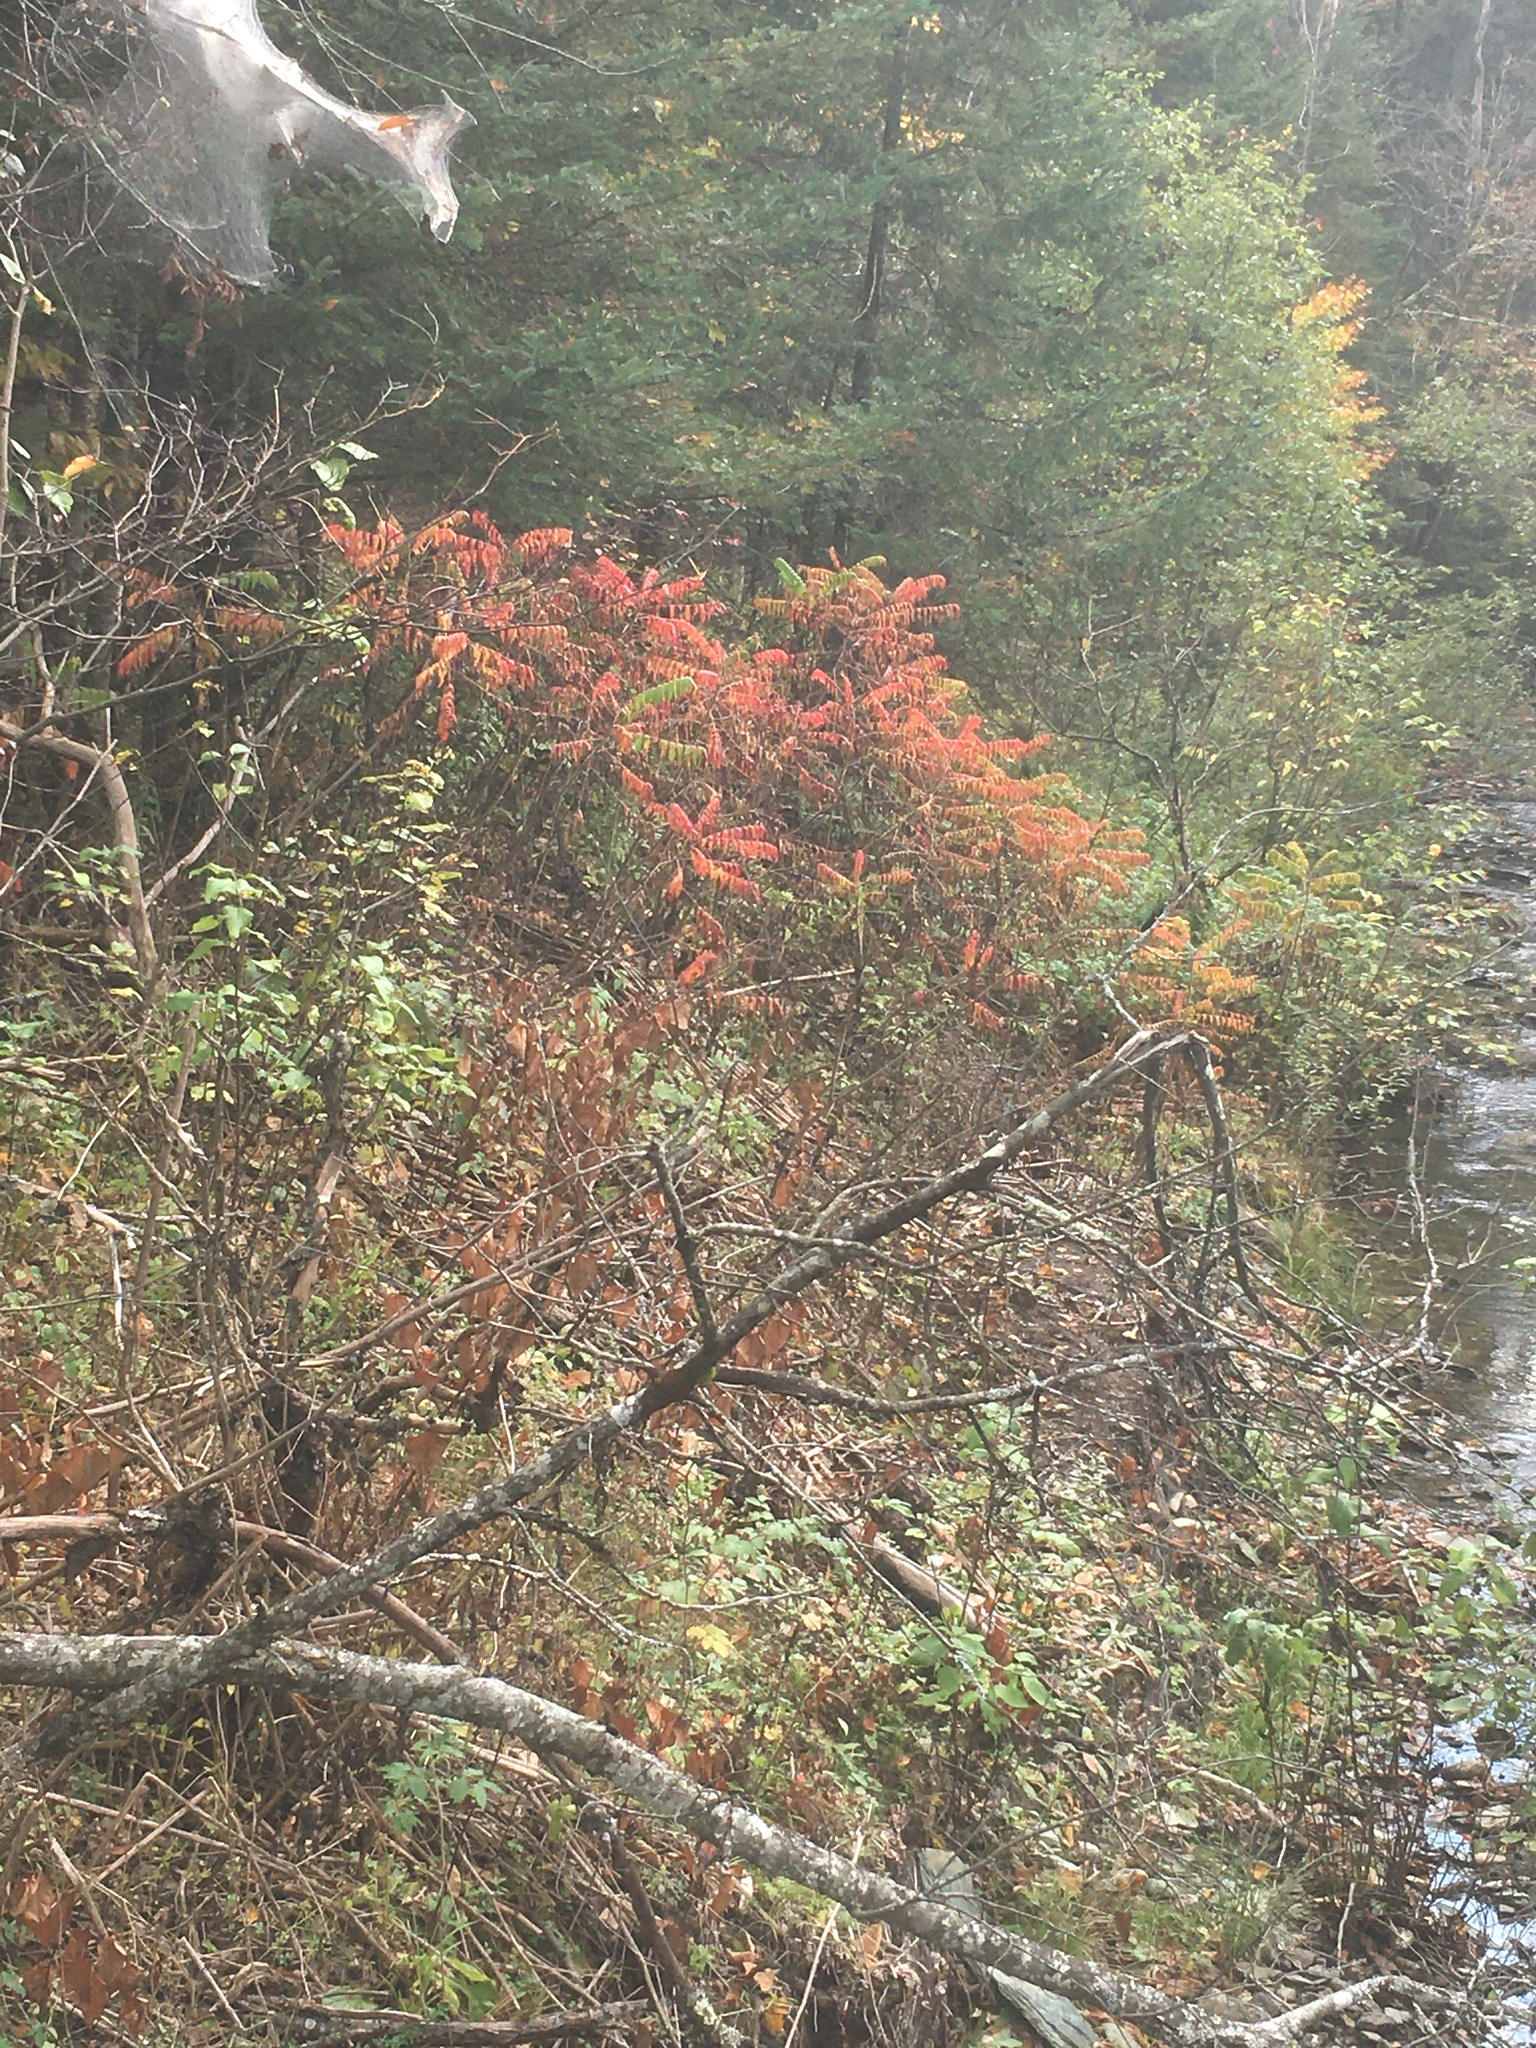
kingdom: Plantae
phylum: Tracheophyta
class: Magnoliopsida
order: Sapindales
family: Anacardiaceae
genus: Rhus
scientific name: Rhus typhina
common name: Staghorn sumac
